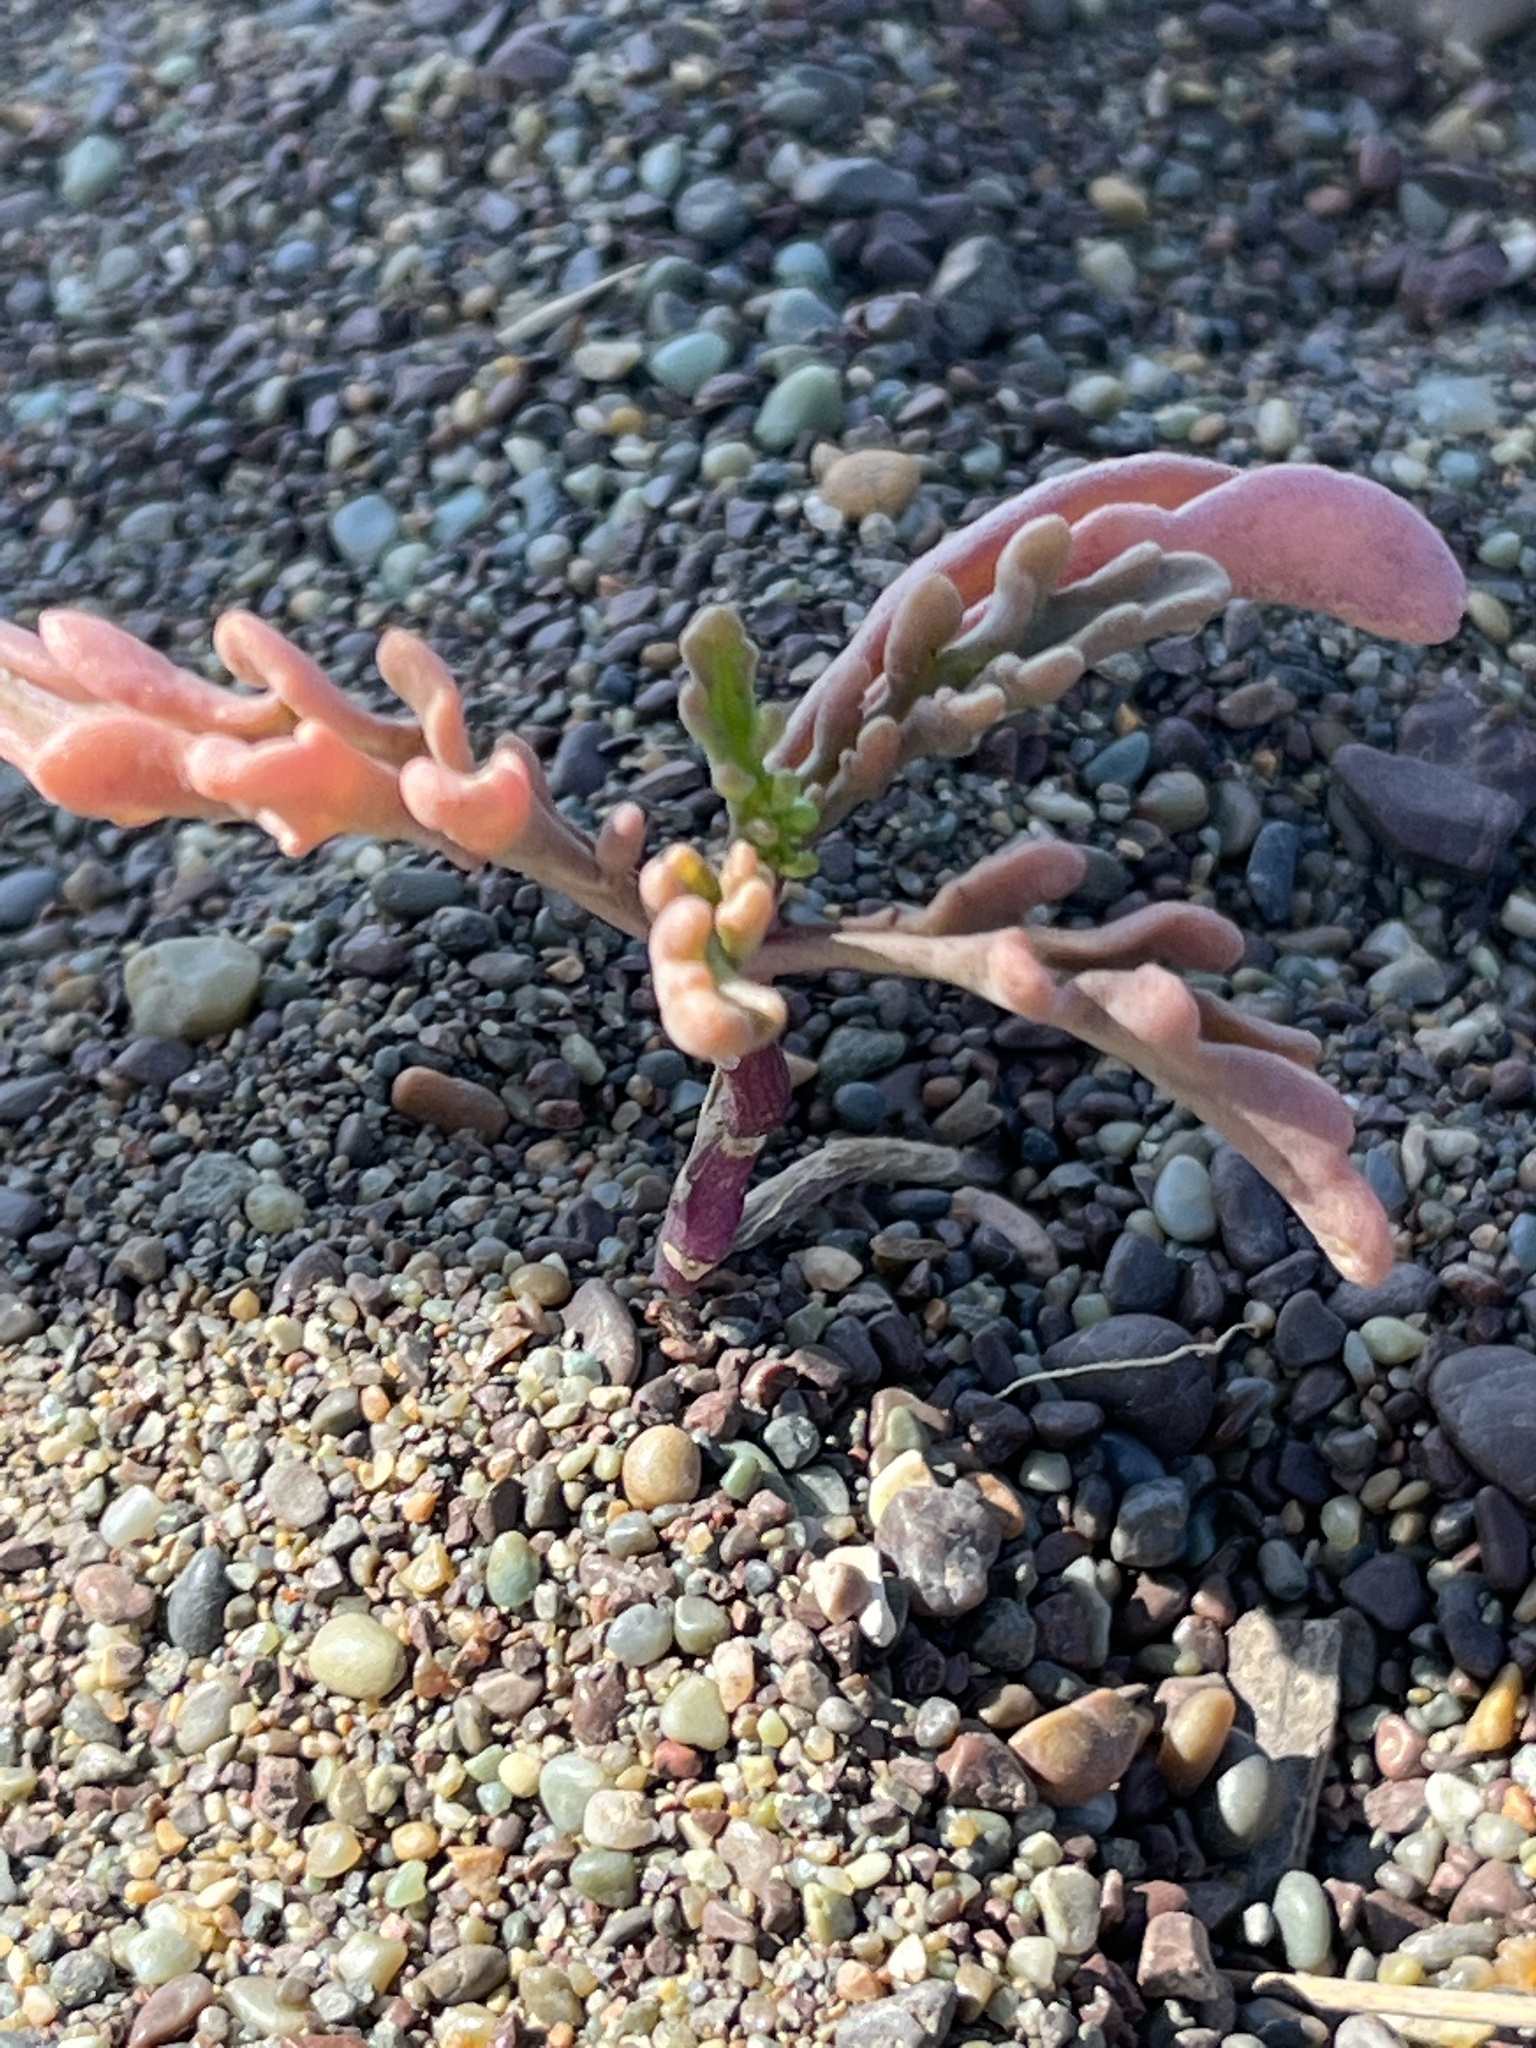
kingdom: Plantae
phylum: Tracheophyta
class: Magnoliopsida
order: Brassicales
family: Brassicaceae
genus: Cakile
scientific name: Cakile maritima
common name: Sea rocket
